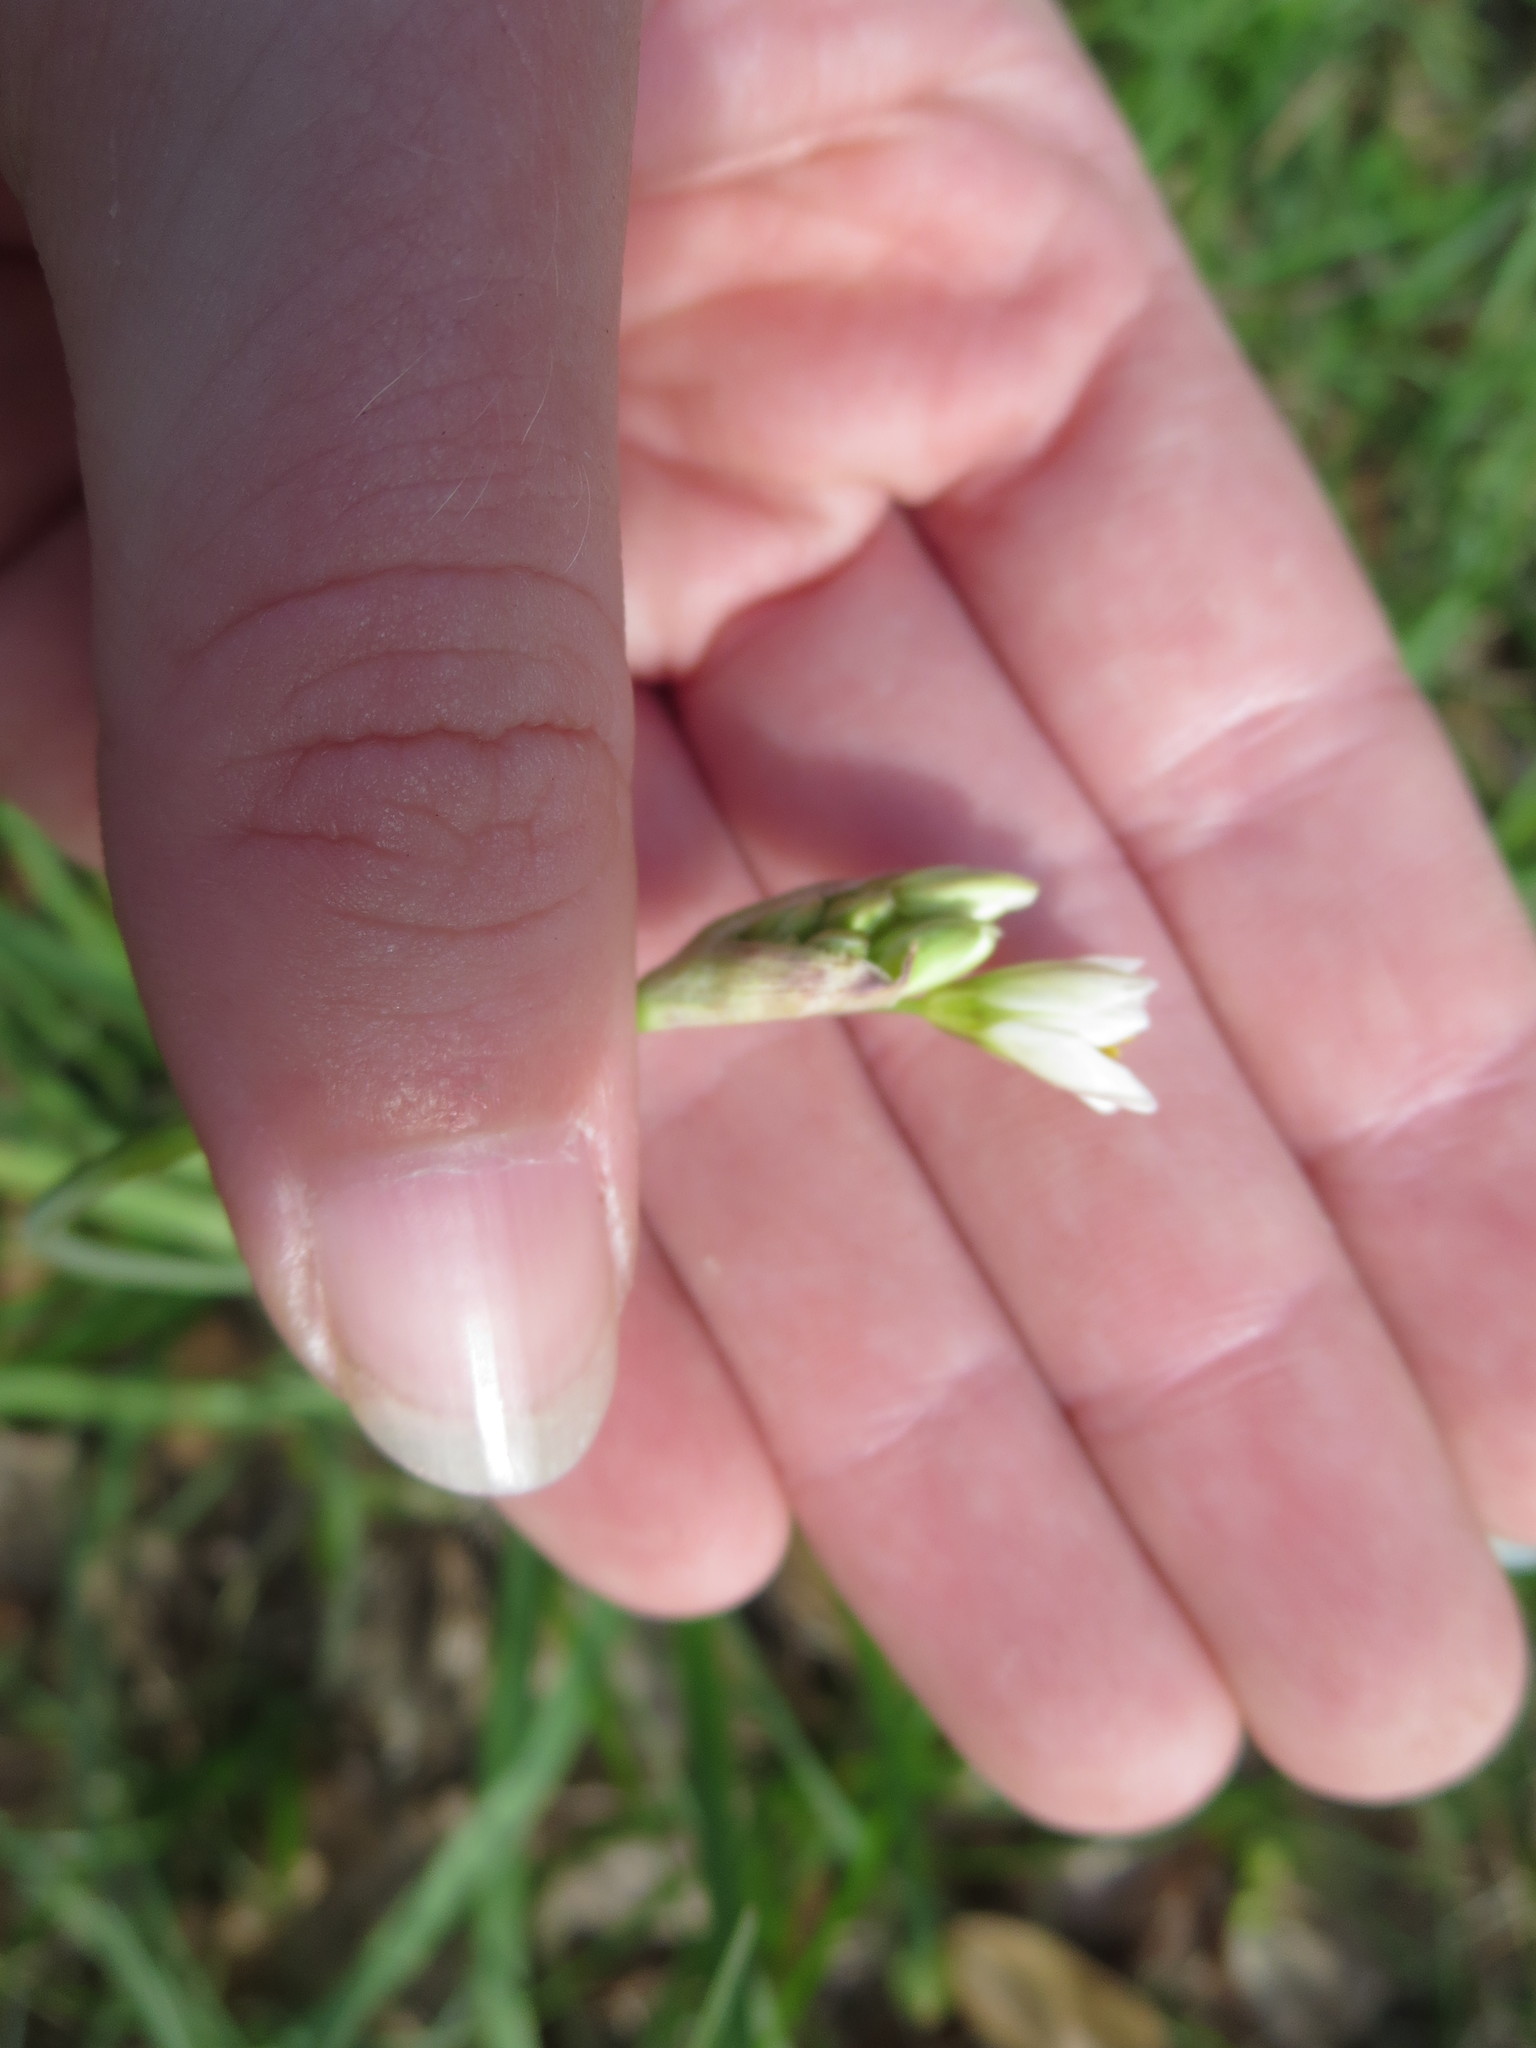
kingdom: Plantae
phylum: Tracheophyta
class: Liliopsida
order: Asparagales
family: Amaryllidaceae
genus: Nothoscordum
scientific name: Nothoscordum gracile
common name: Slender false garlic
